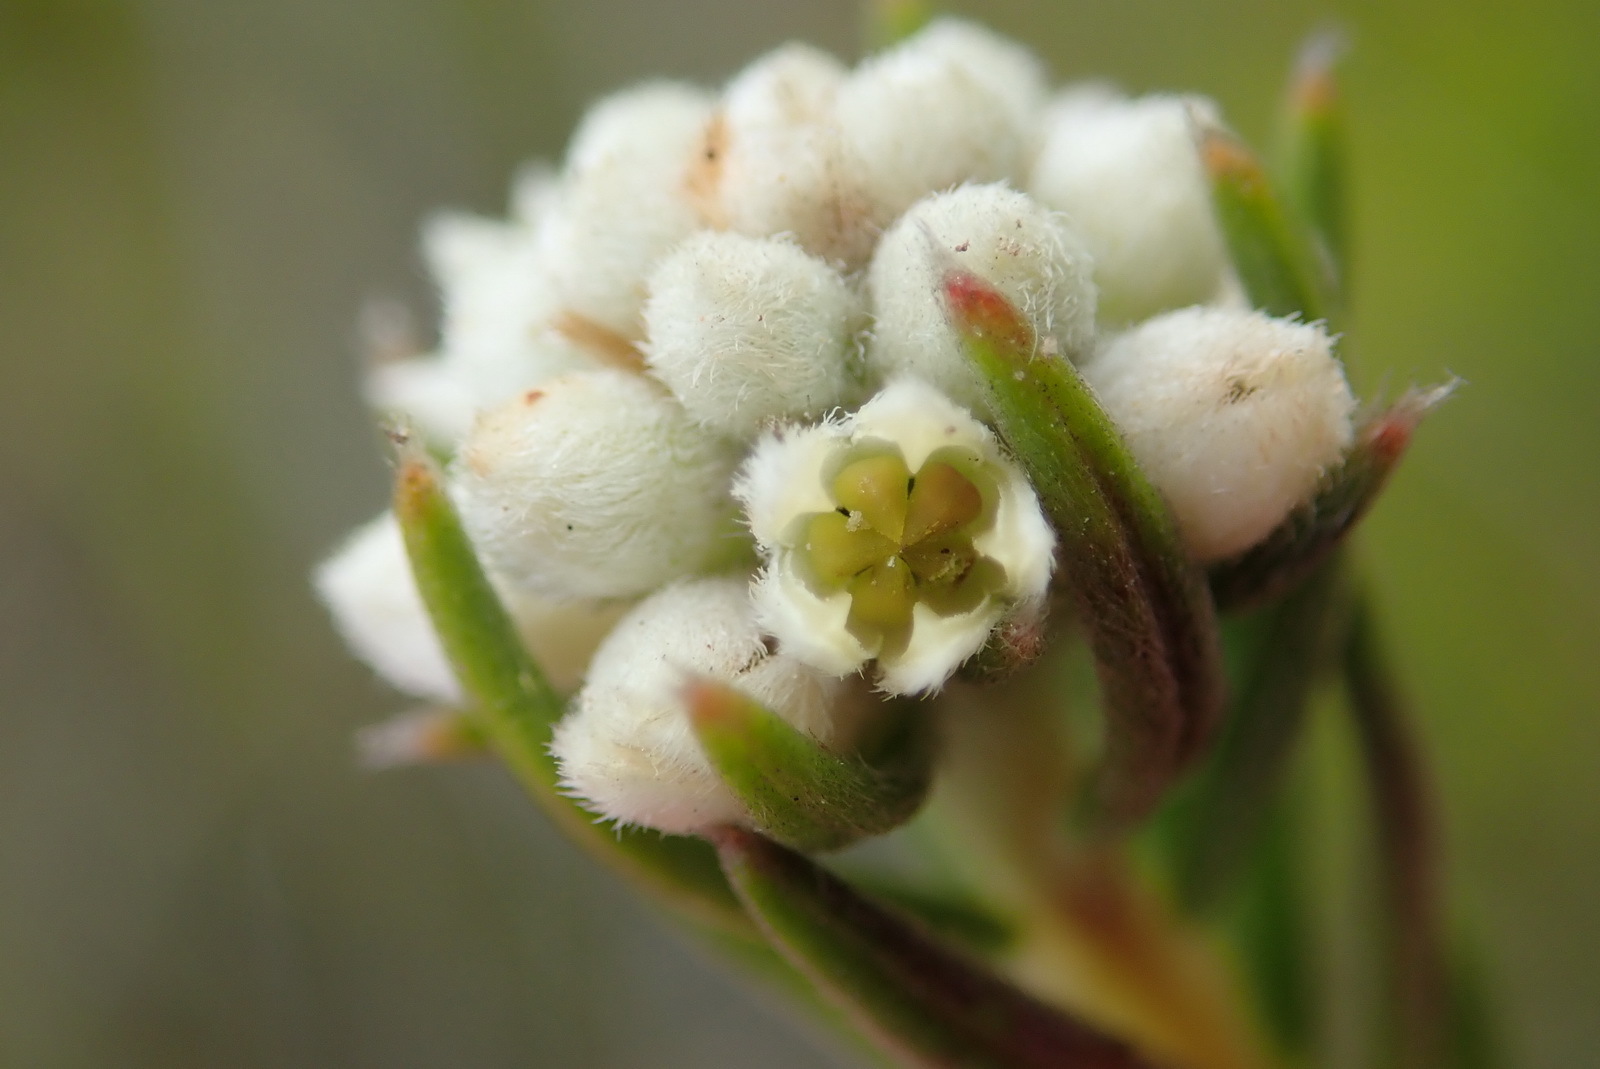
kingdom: Plantae
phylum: Tracheophyta
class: Magnoliopsida
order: Rosales
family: Rhamnaceae
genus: Phylica
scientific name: Phylica imberbis
